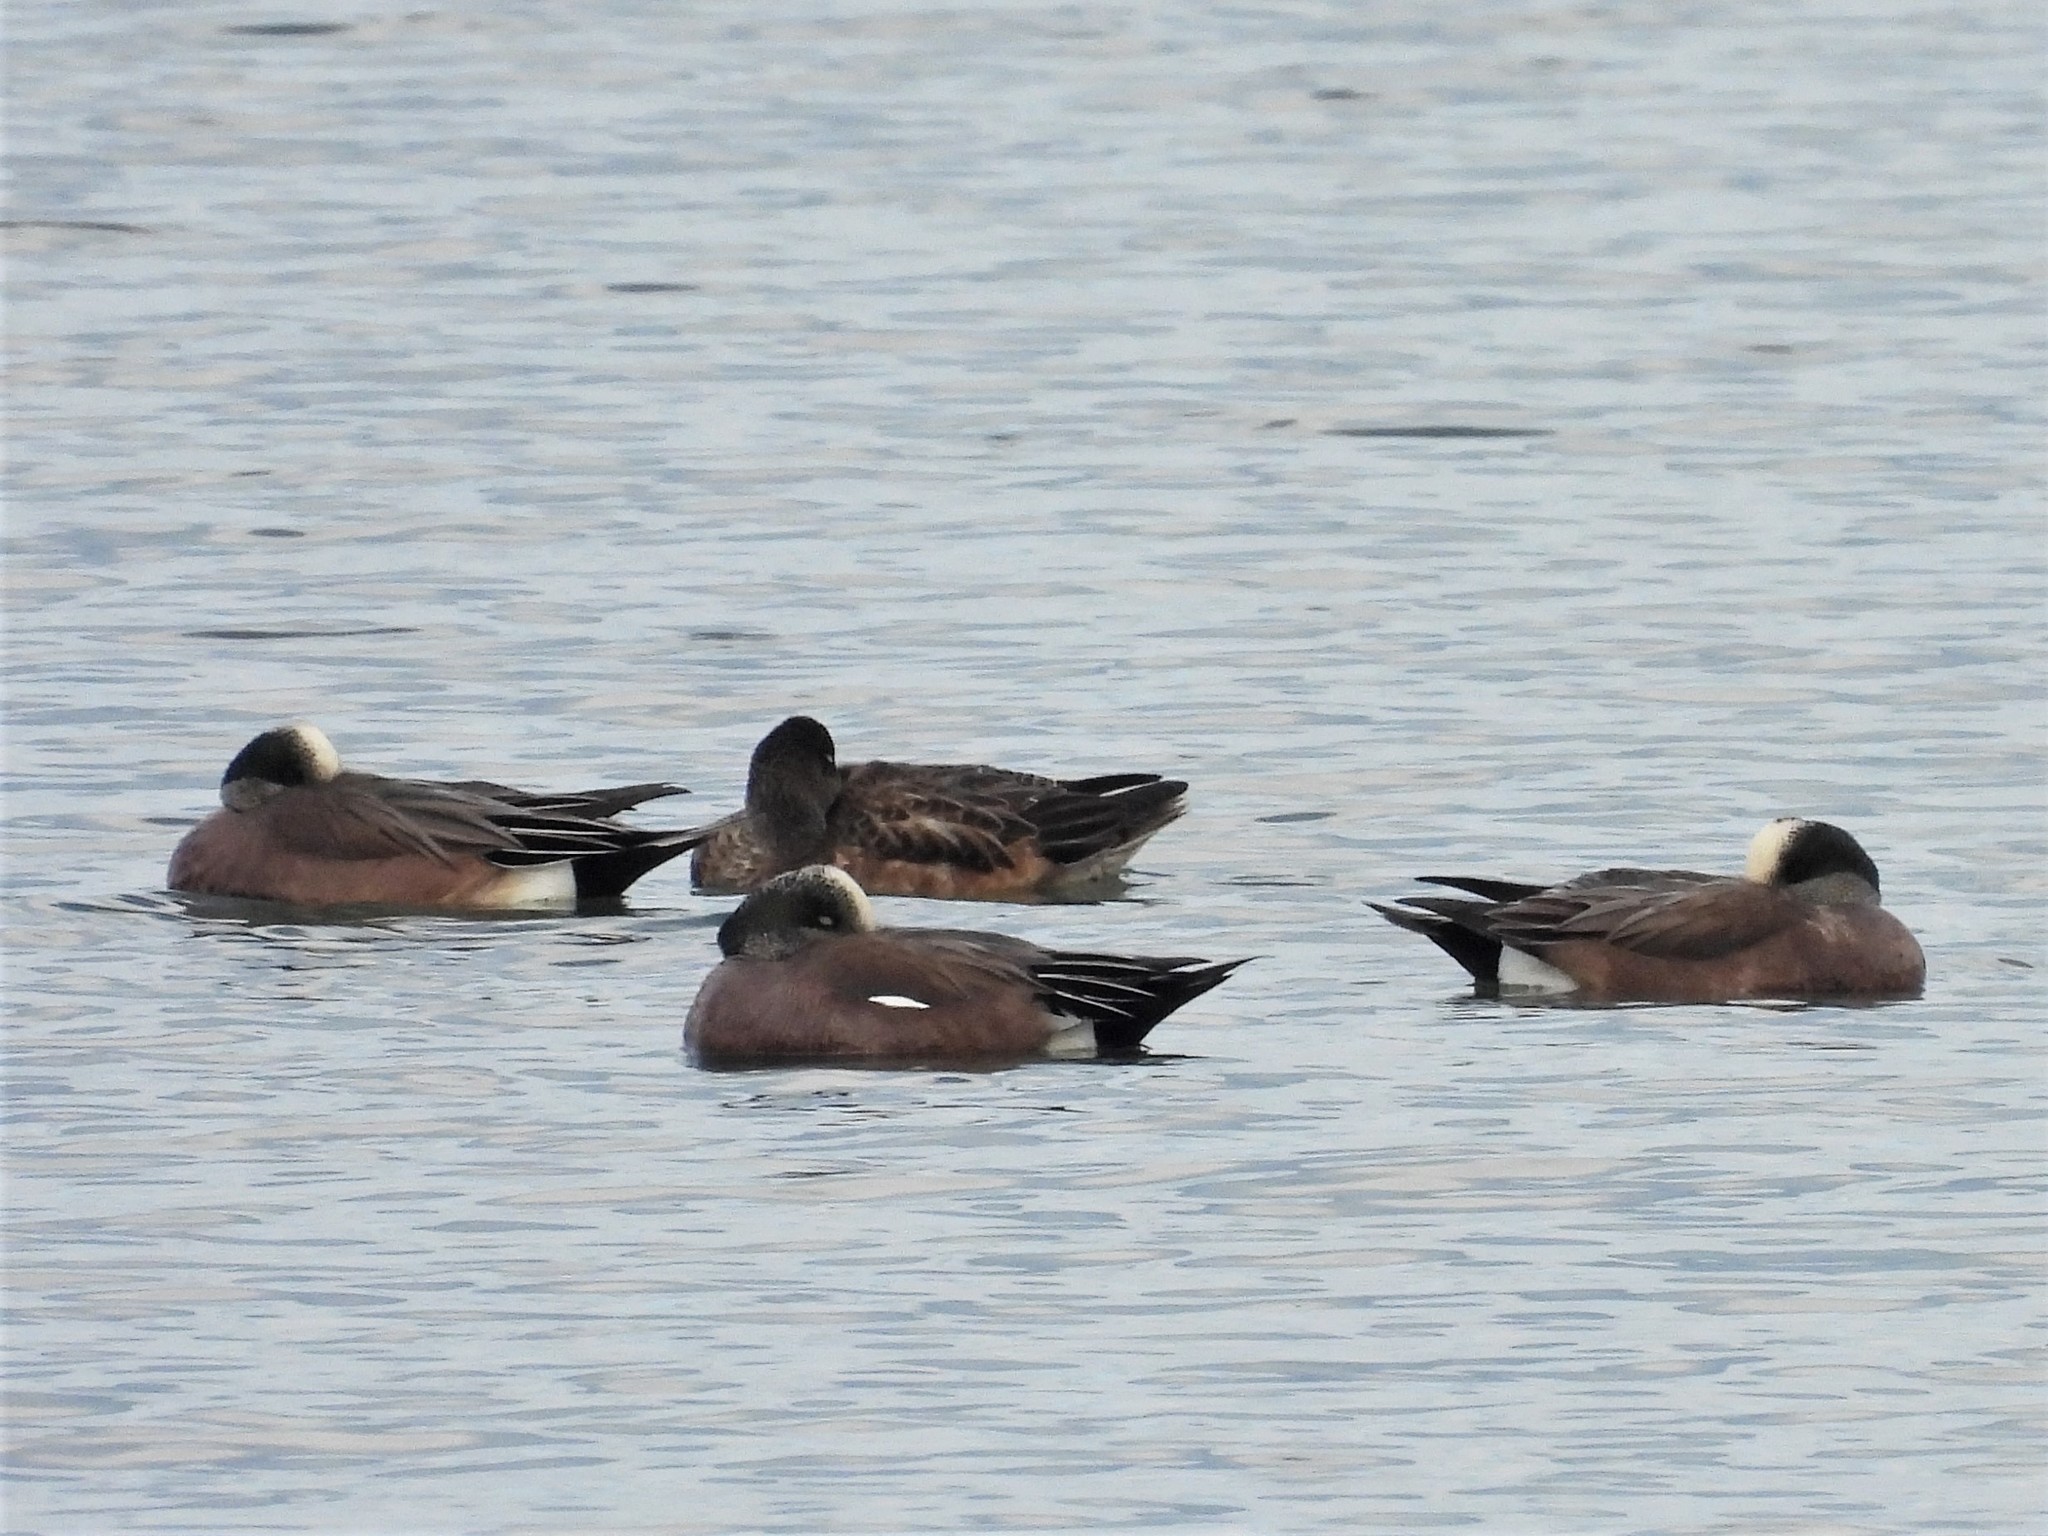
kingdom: Animalia
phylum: Chordata
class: Aves
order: Anseriformes
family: Anatidae
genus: Mareca
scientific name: Mareca americana
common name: American wigeon
